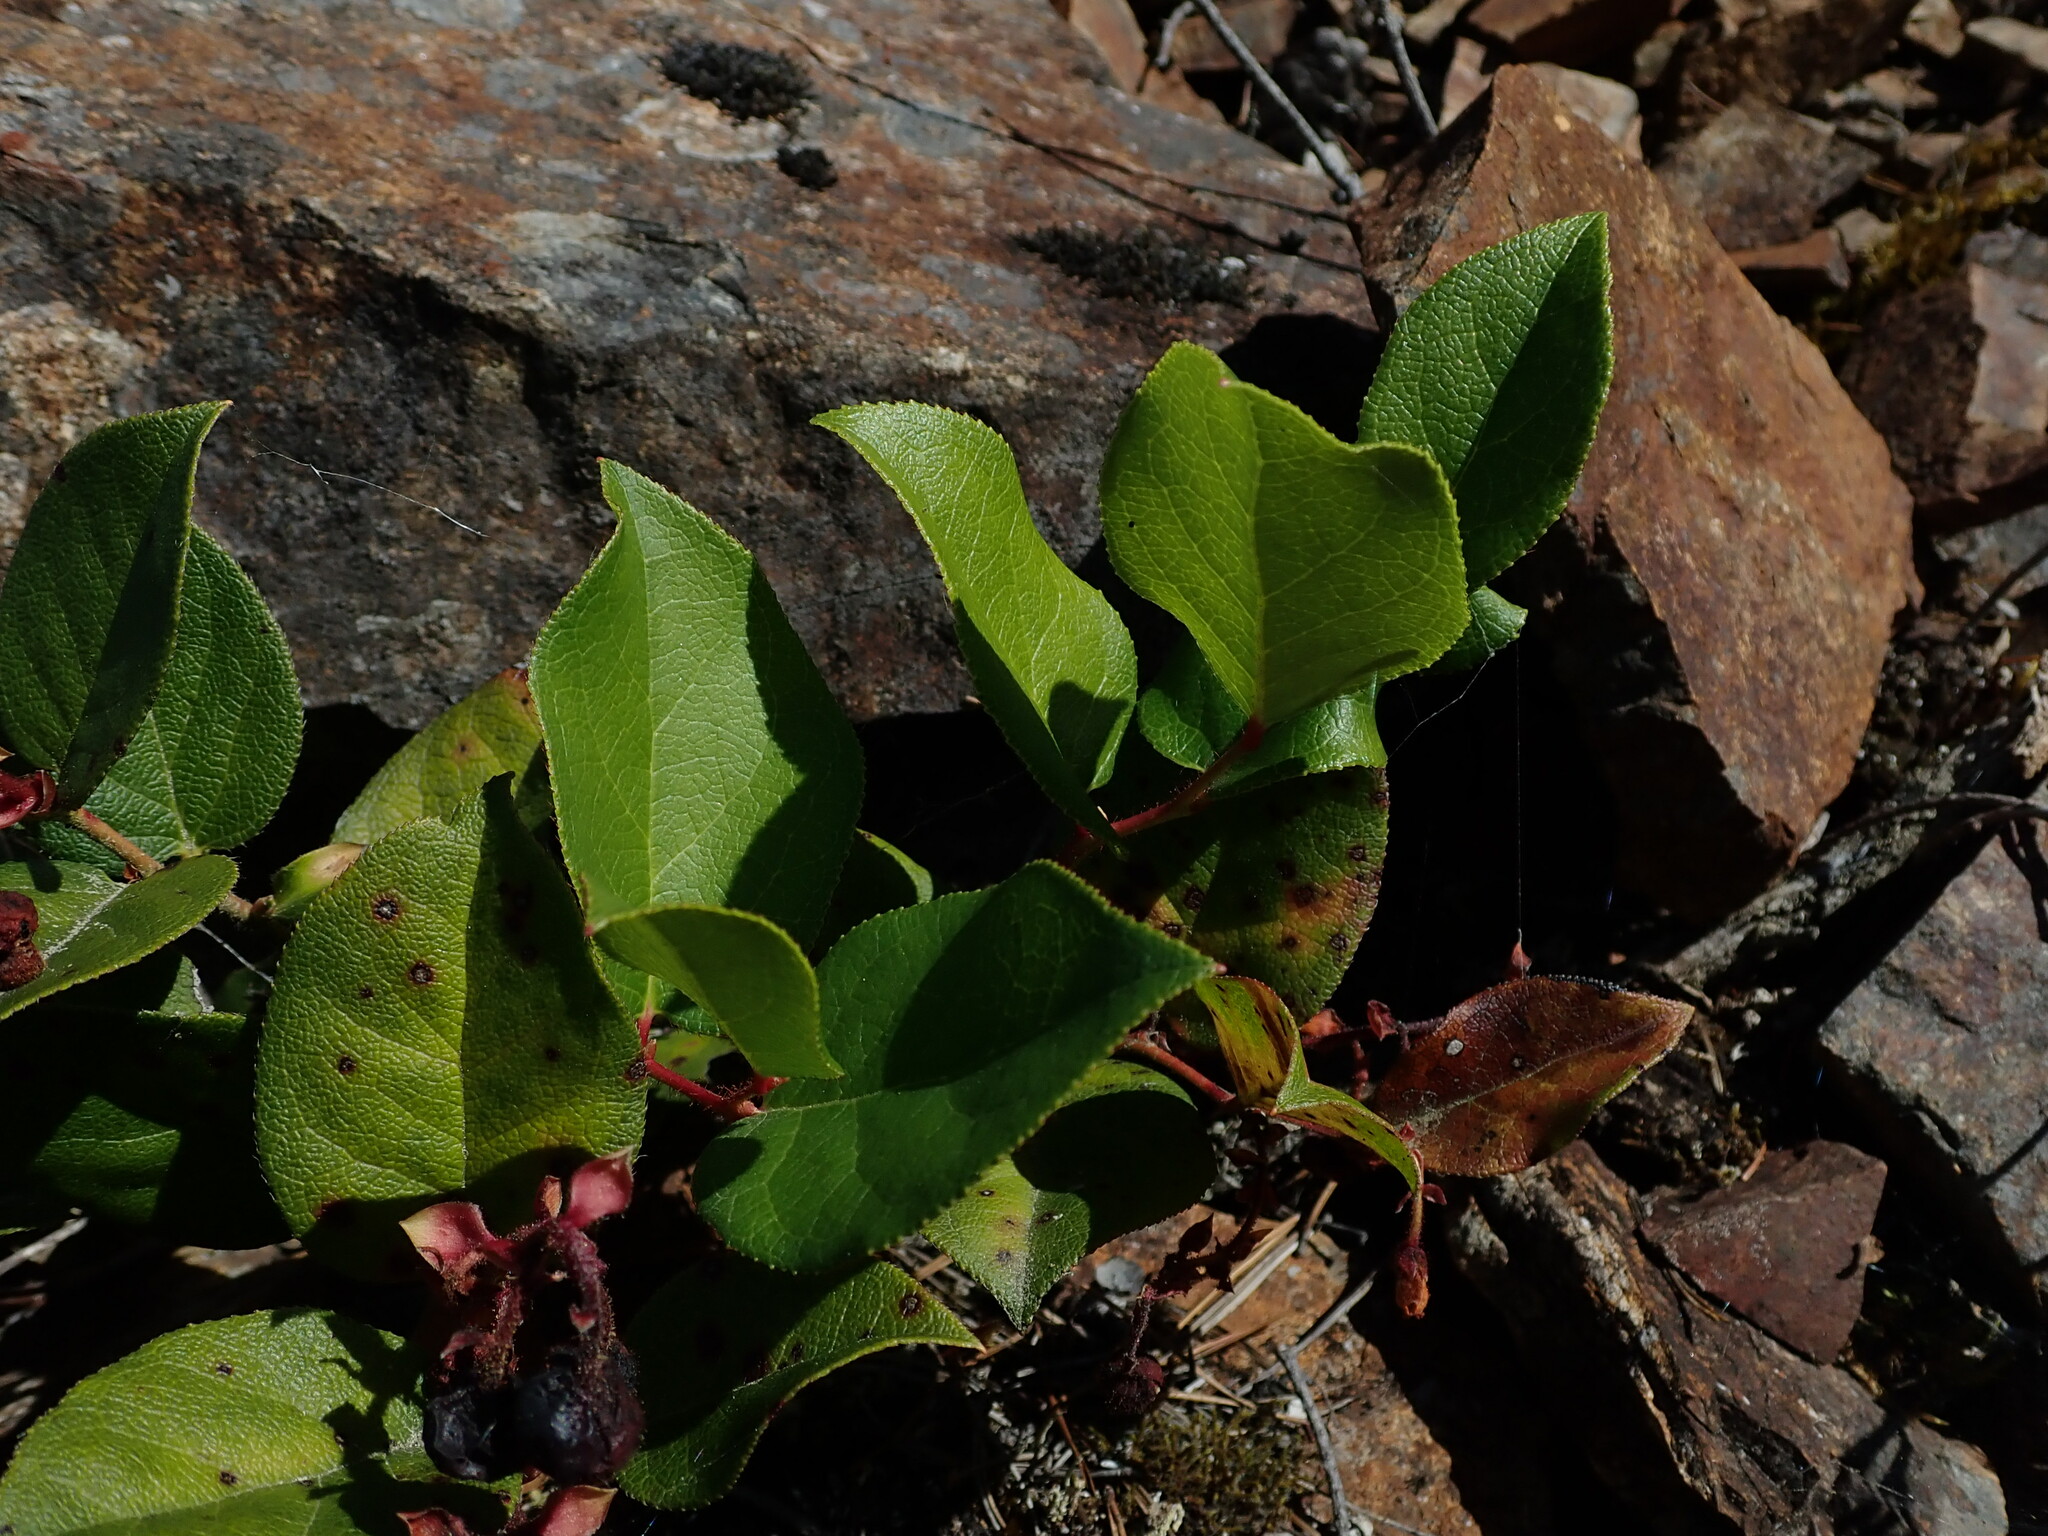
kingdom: Plantae
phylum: Tracheophyta
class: Magnoliopsida
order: Ericales
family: Ericaceae
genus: Gaultheria
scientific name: Gaultheria shallon
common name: Shallon
